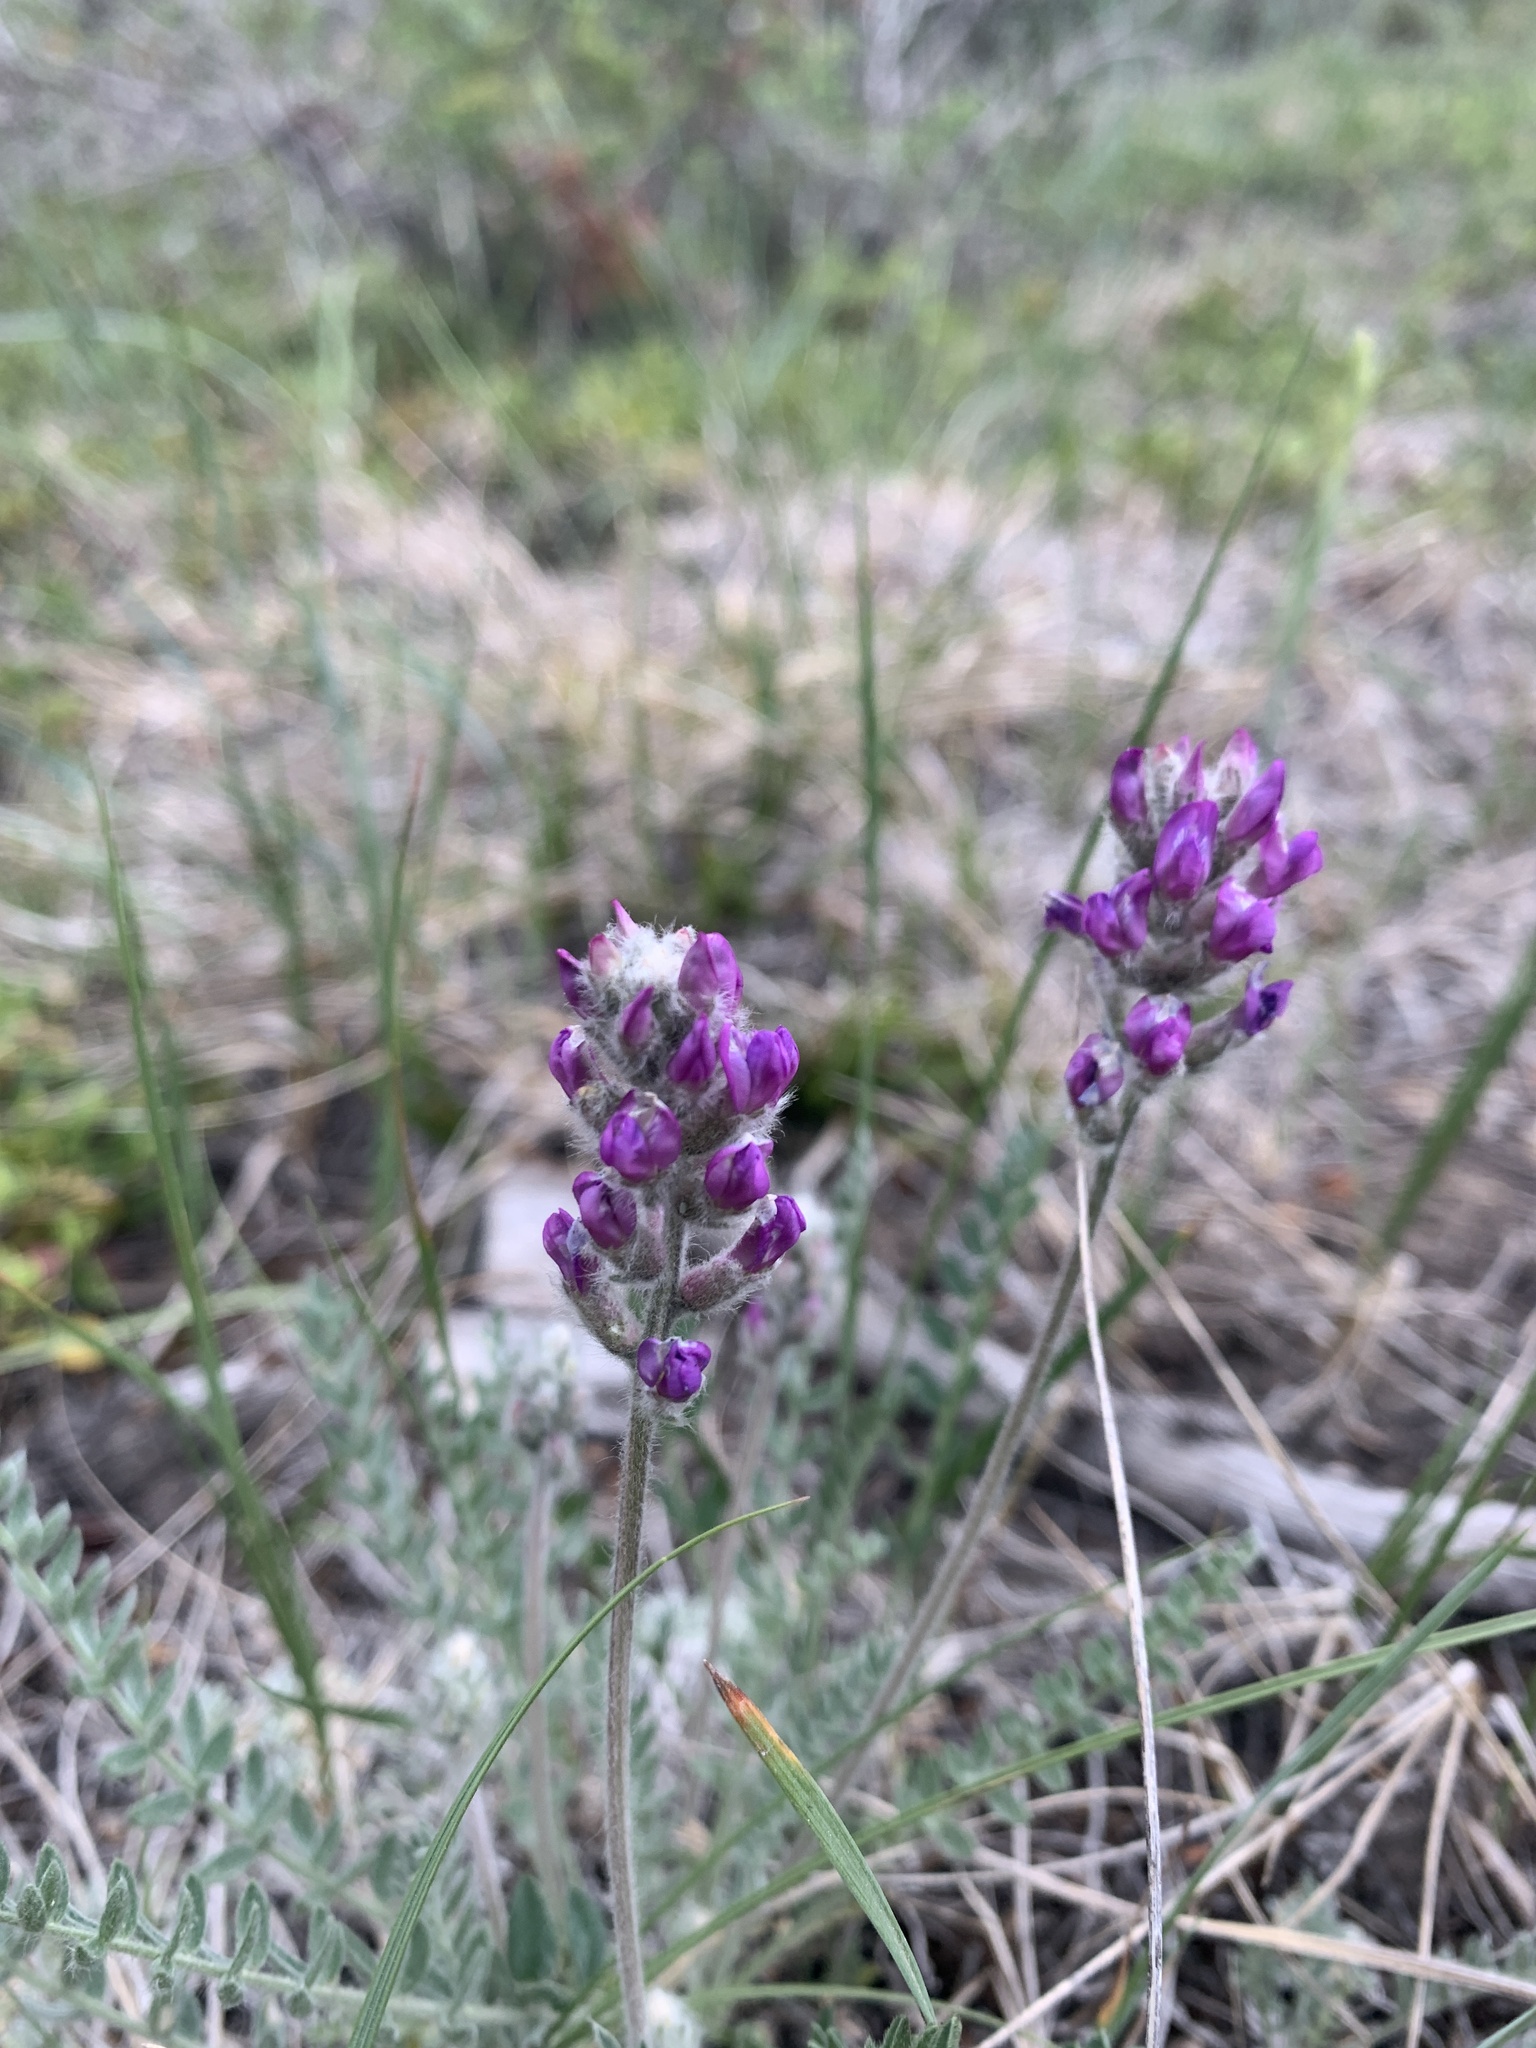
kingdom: Plantae
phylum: Tracheophyta
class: Magnoliopsida
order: Fabales
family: Fabaceae
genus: Oxytropis
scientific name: Oxytropis splendens
